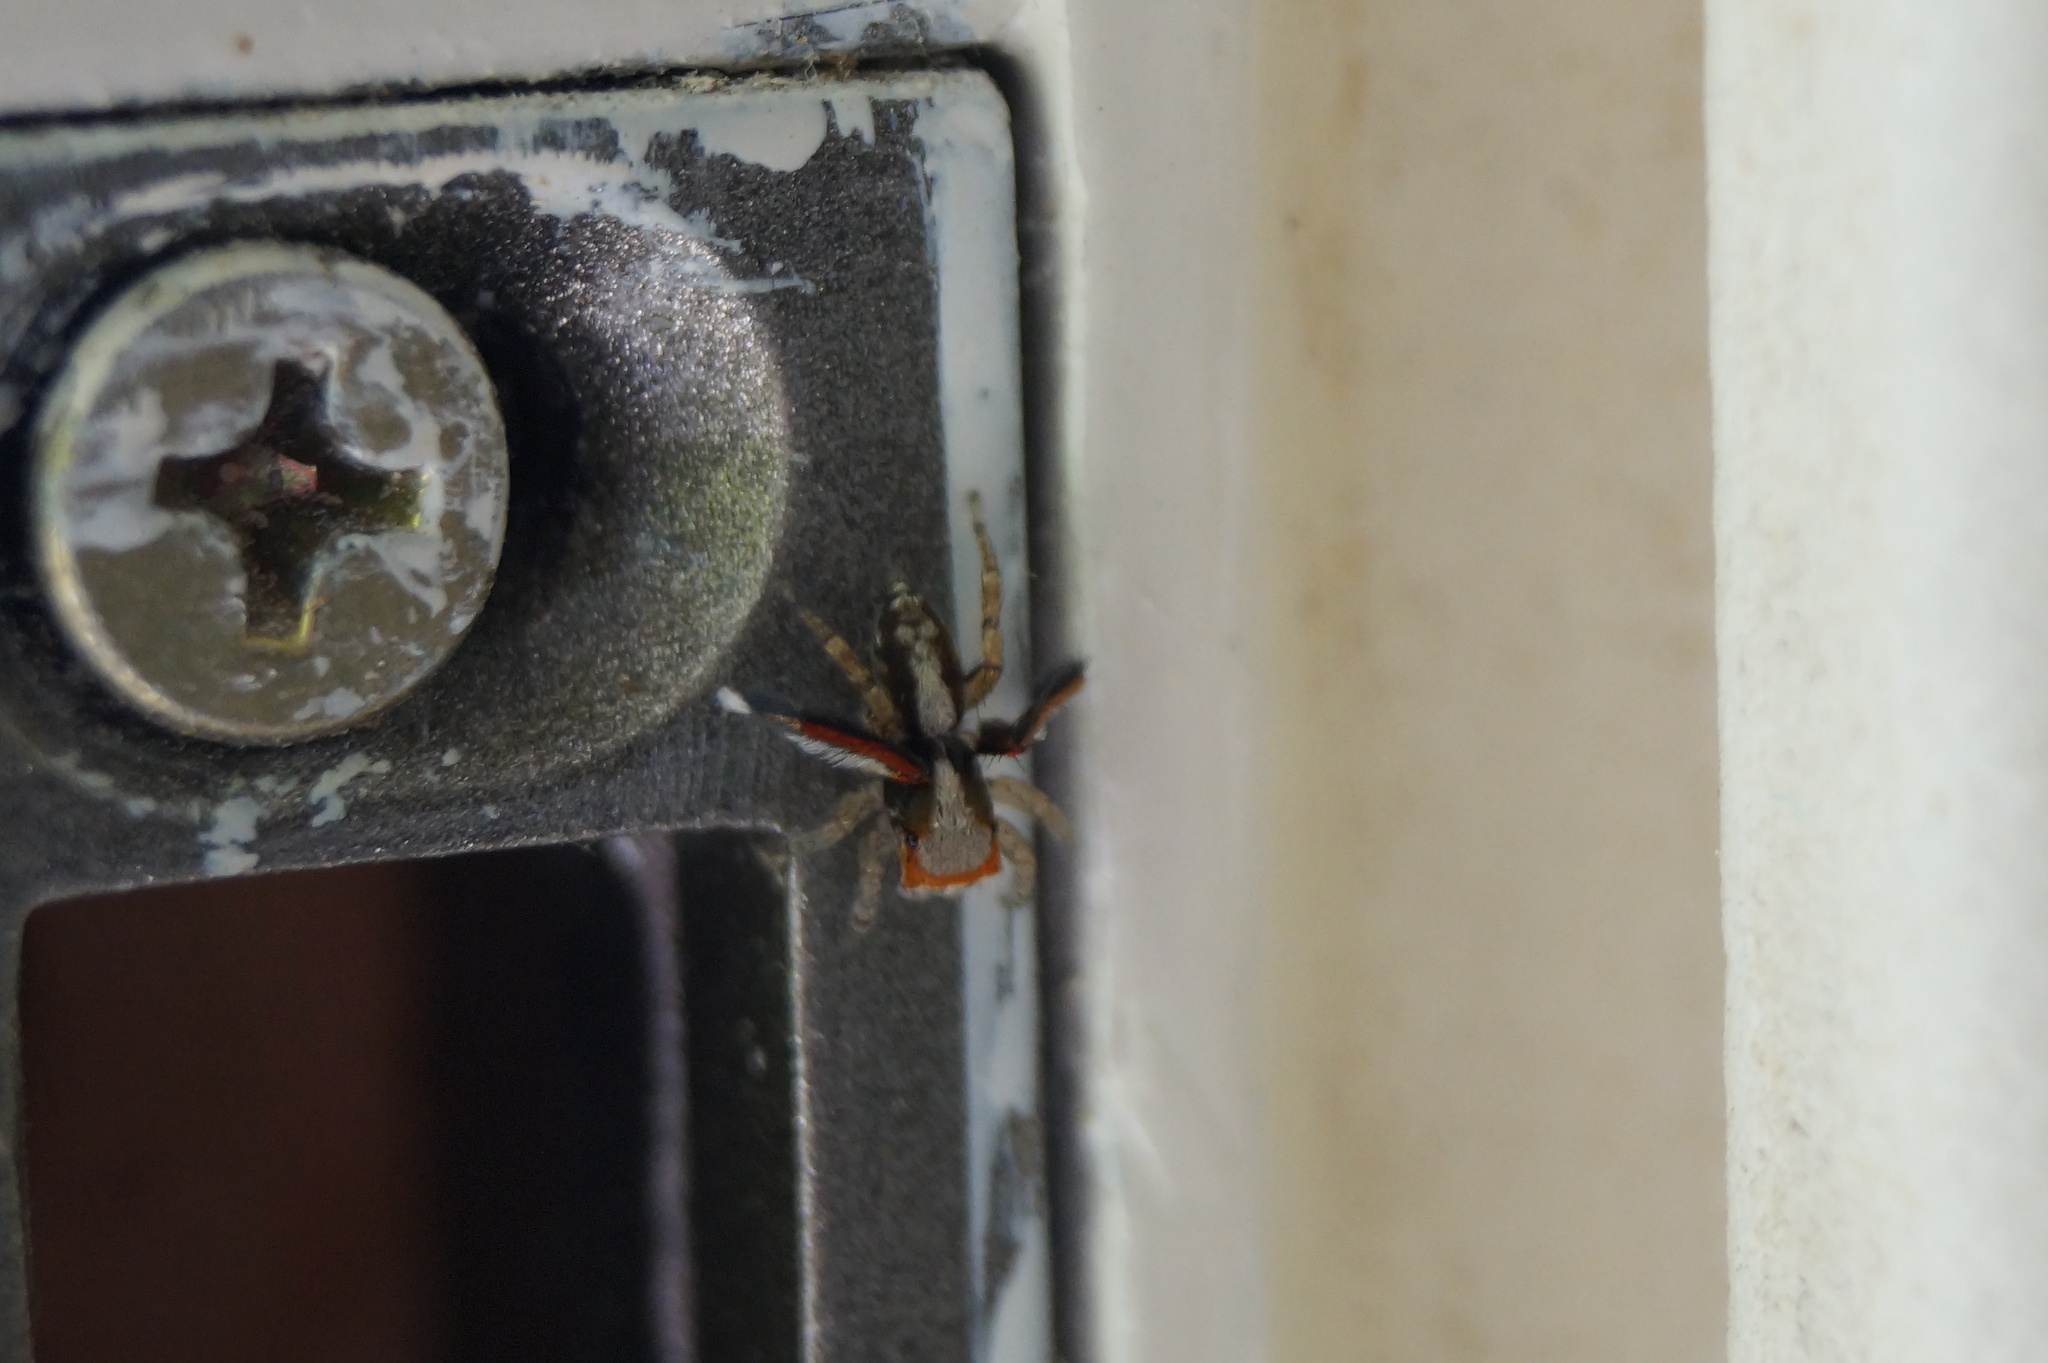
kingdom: Animalia
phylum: Arthropoda
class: Arachnida
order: Araneae
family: Salticidae
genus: Saitis
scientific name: Saitis barbipes
